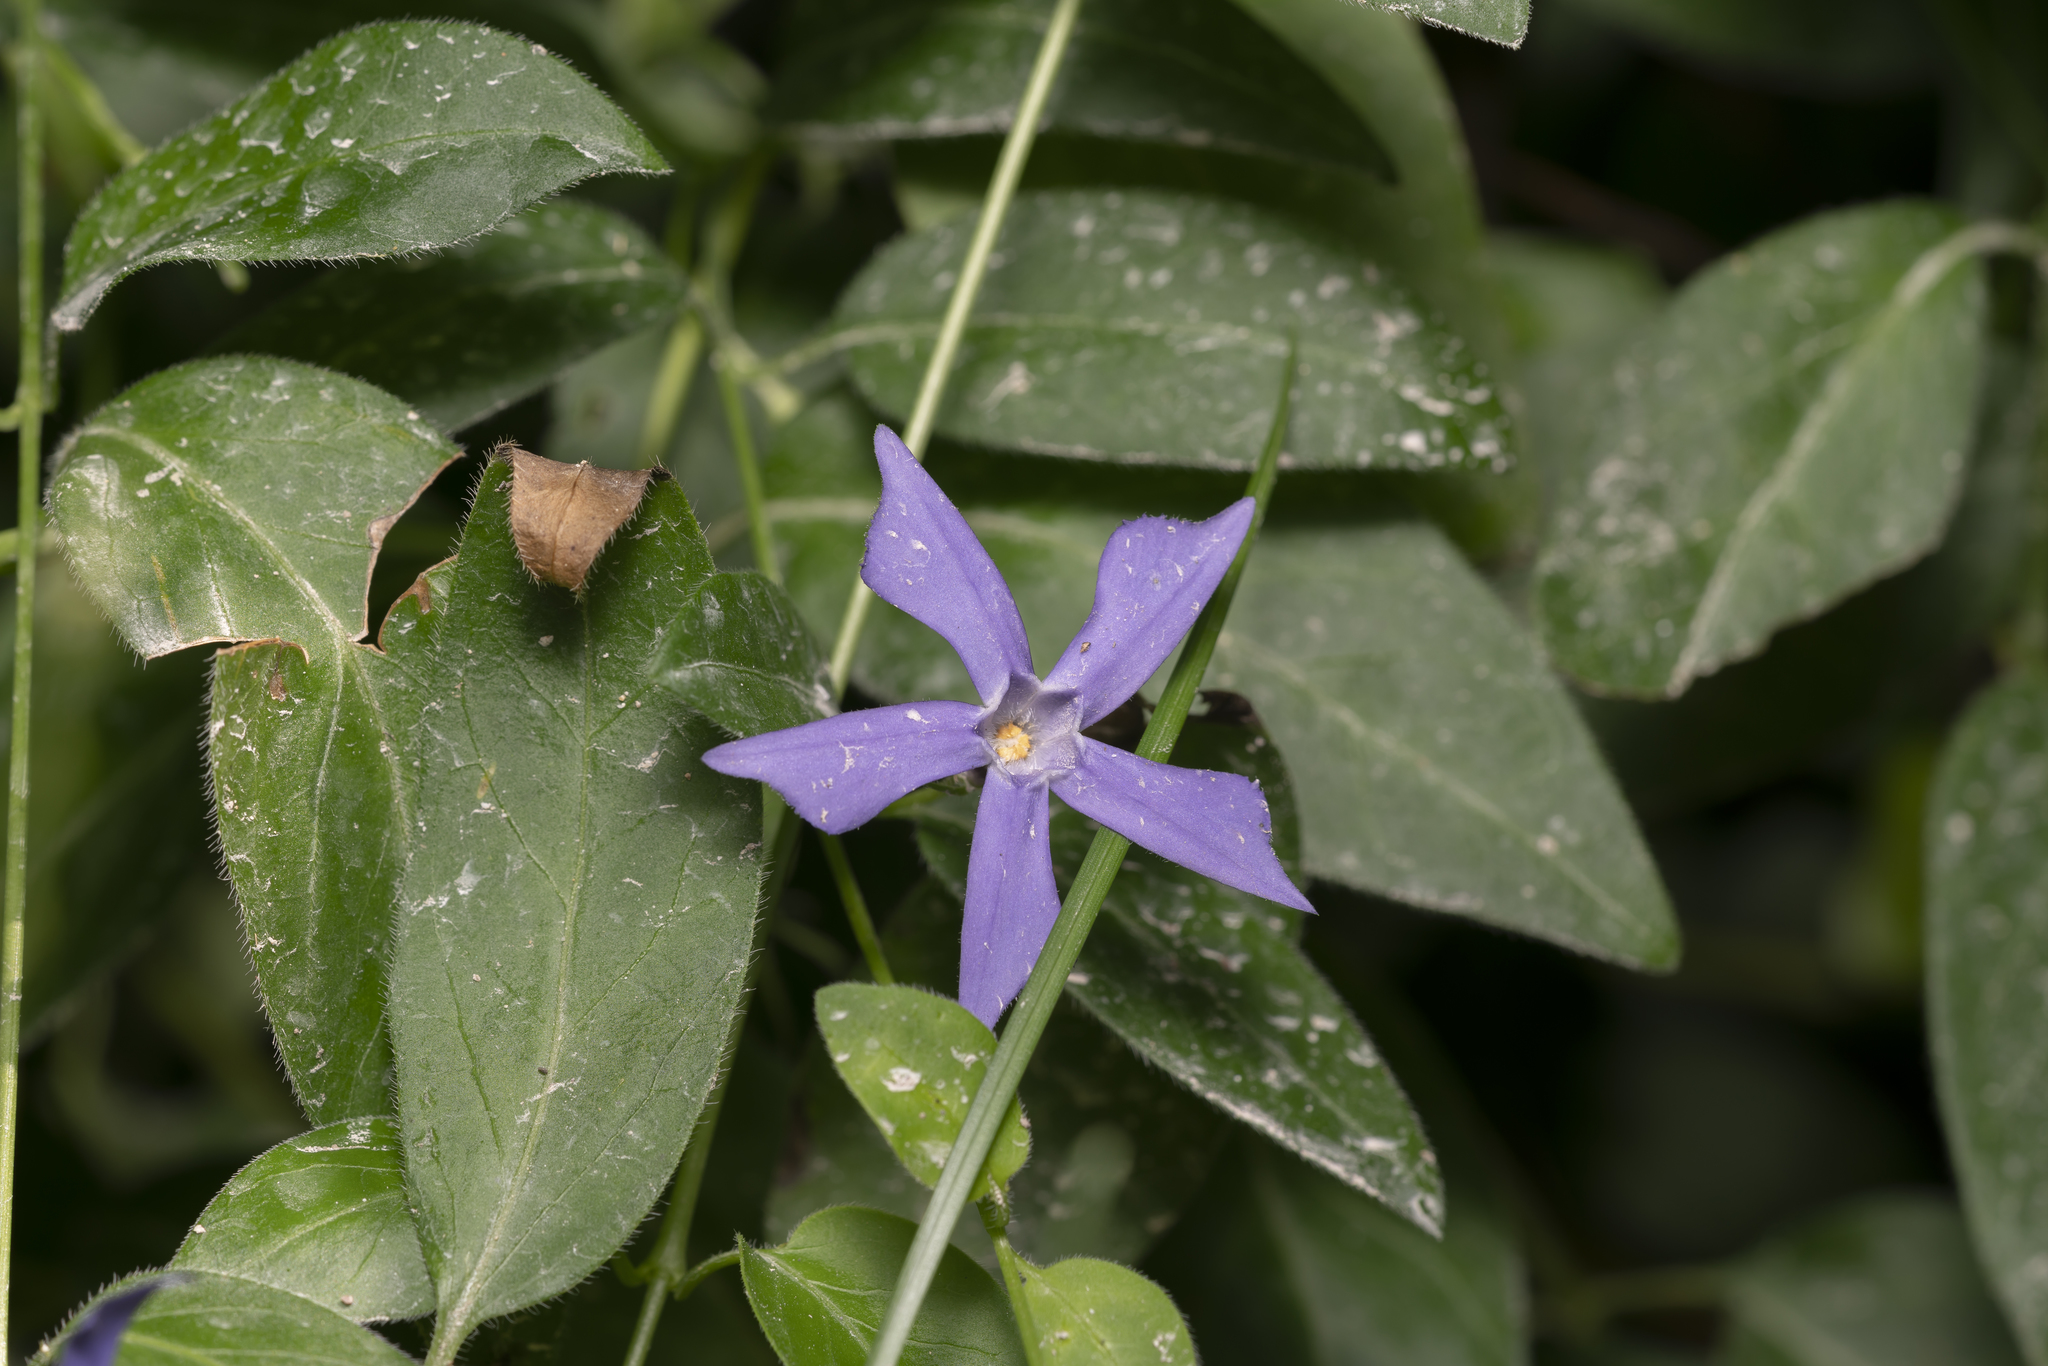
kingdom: Plantae
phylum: Tracheophyta
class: Magnoliopsida
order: Gentianales
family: Apocynaceae
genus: Vinca
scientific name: Vinca major
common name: Greater periwinkle
